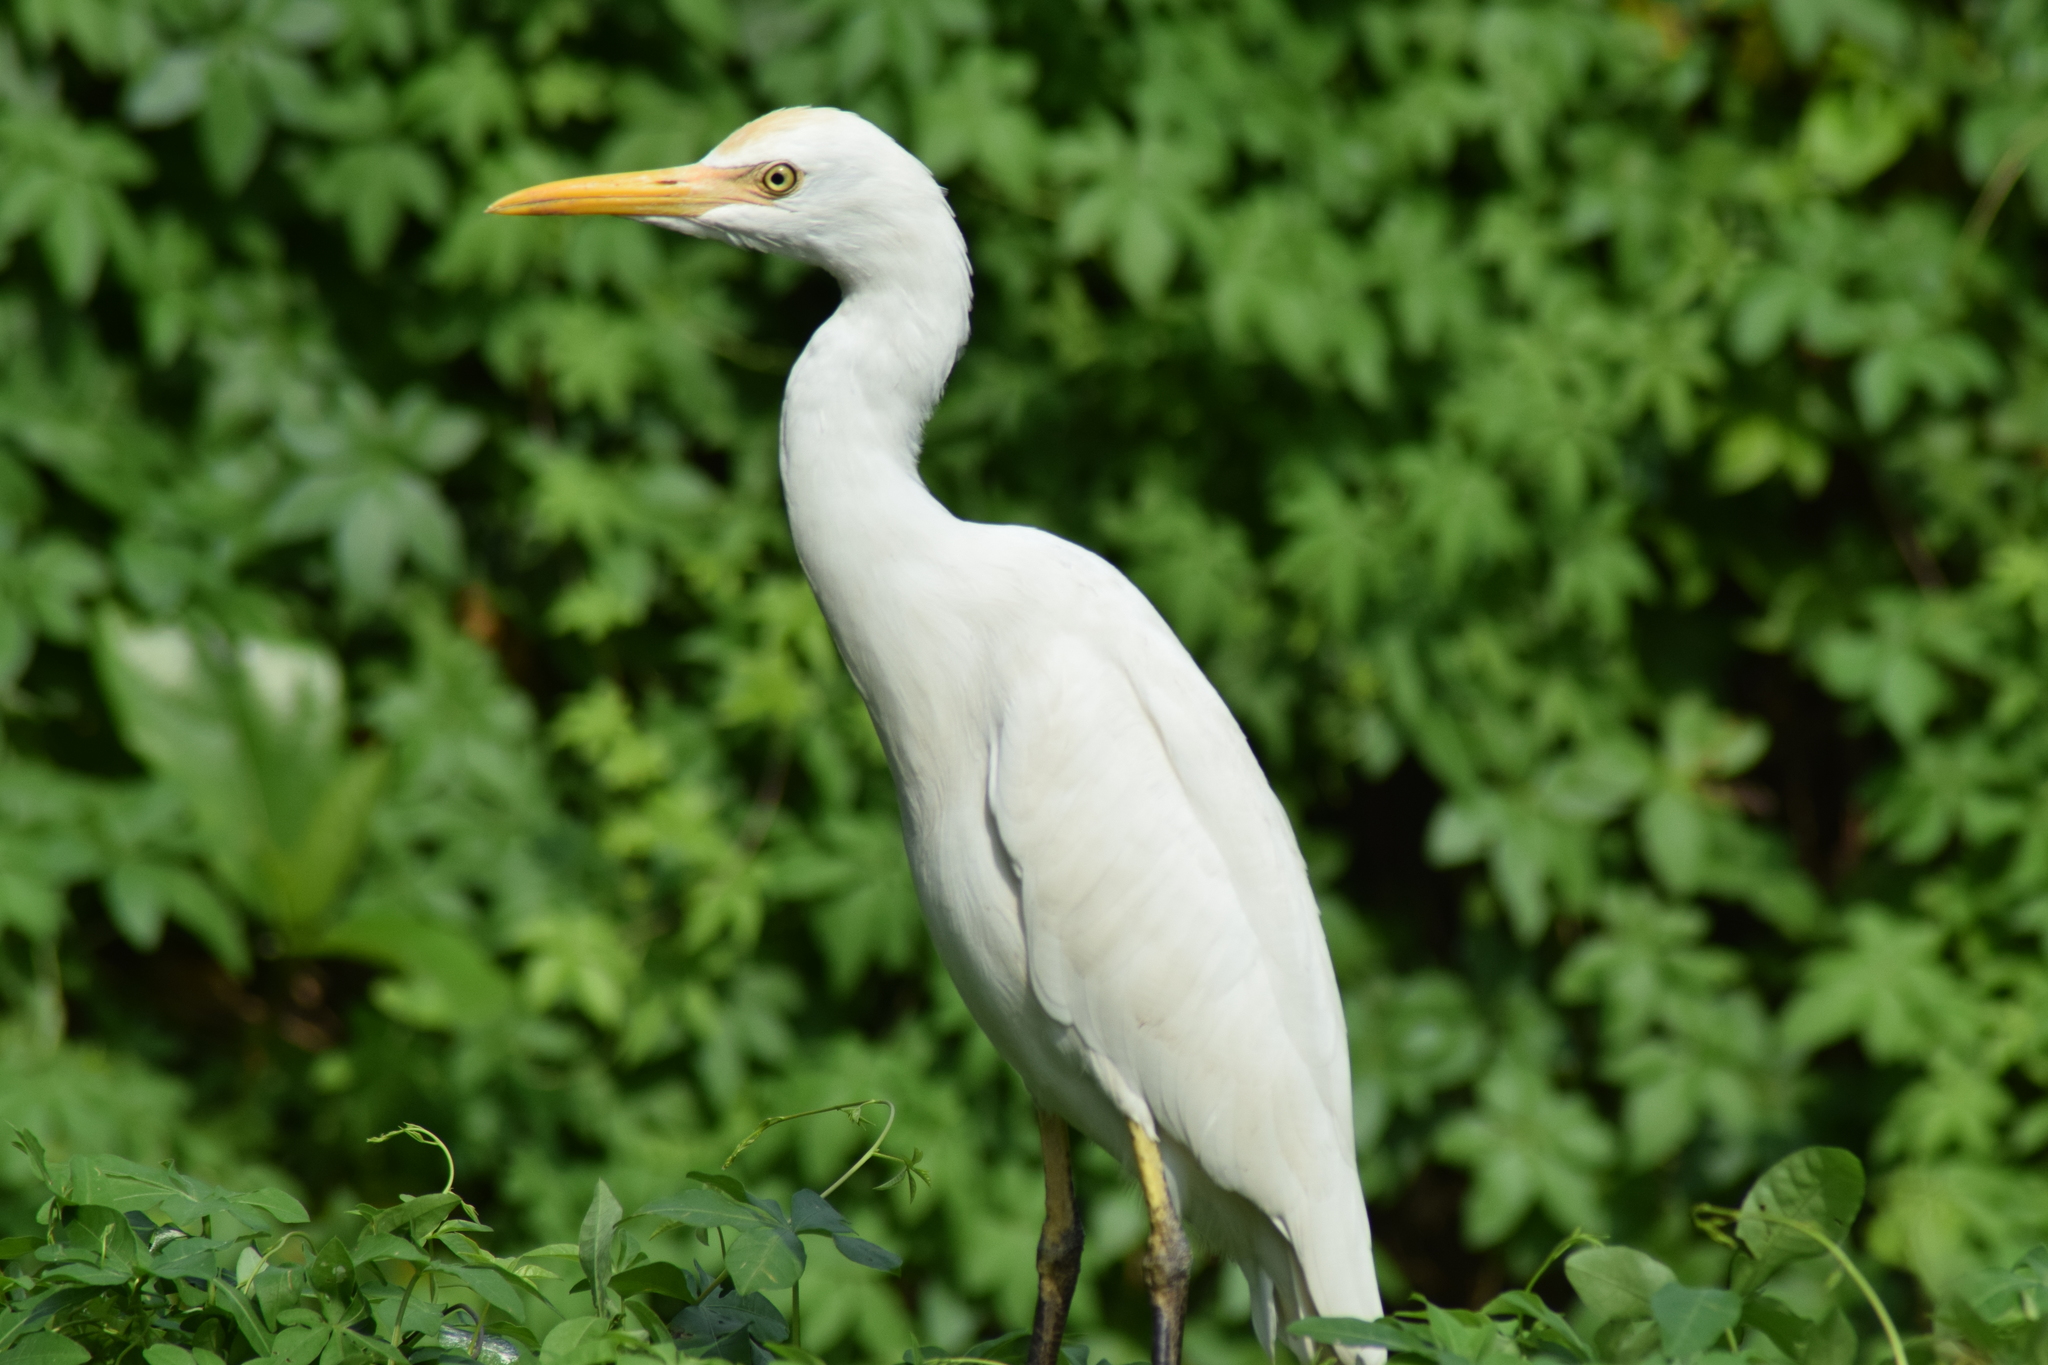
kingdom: Animalia
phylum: Chordata
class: Aves
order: Pelecaniformes
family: Ardeidae
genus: Bubulcus
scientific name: Bubulcus coromandus
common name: Eastern cattle egret
